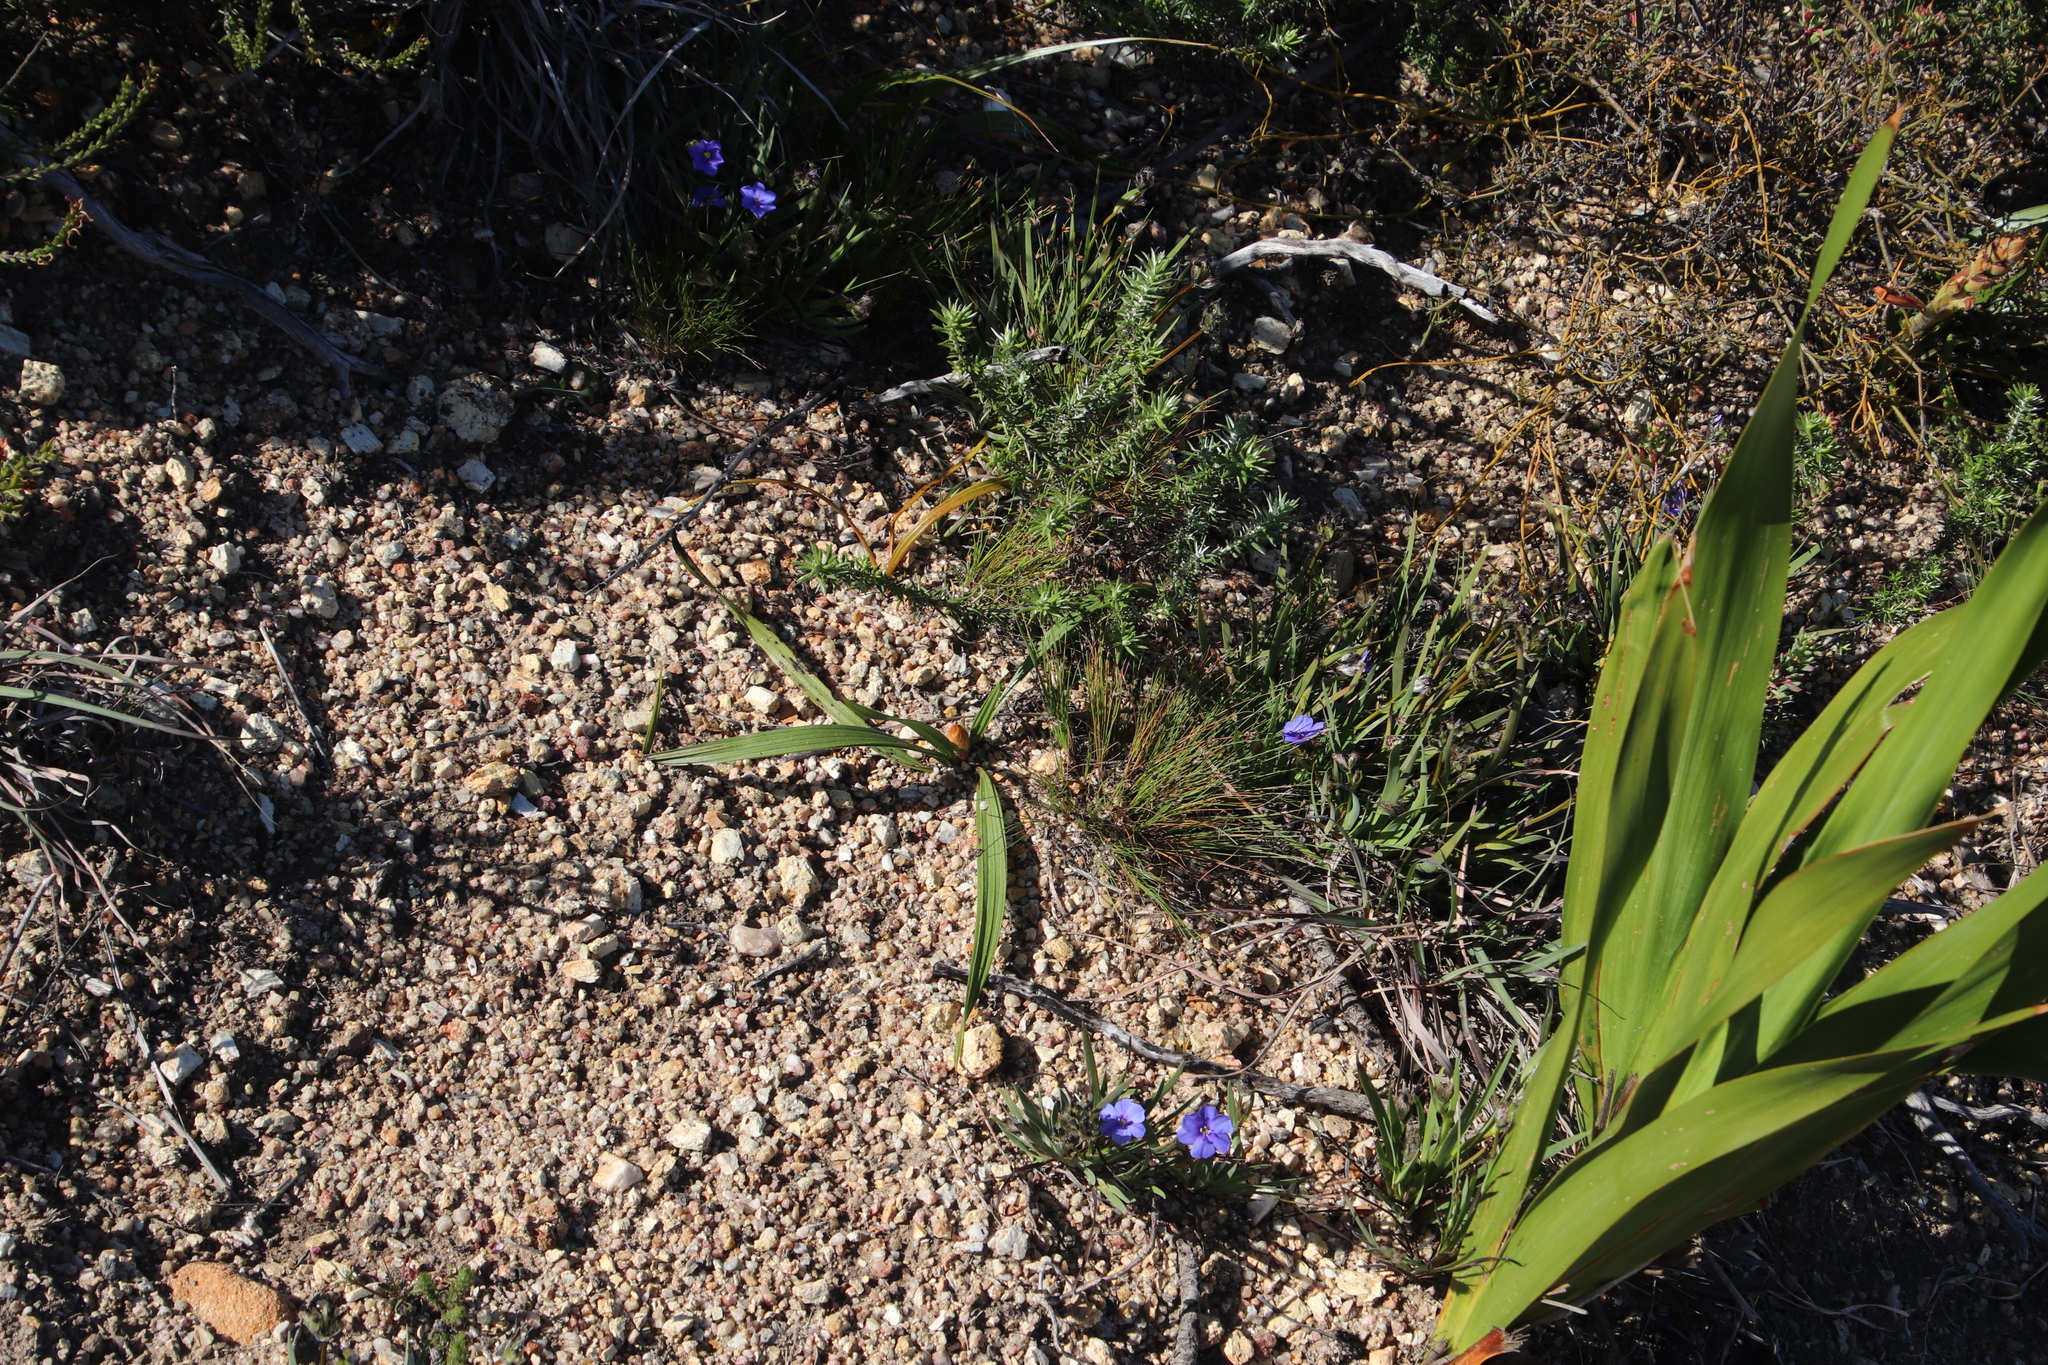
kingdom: Plantae
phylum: Tracheophyta
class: Liliopsida
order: Commelinales
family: Haemodoraceae
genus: Wachendorfia
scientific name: Wachendorfia paniculata
